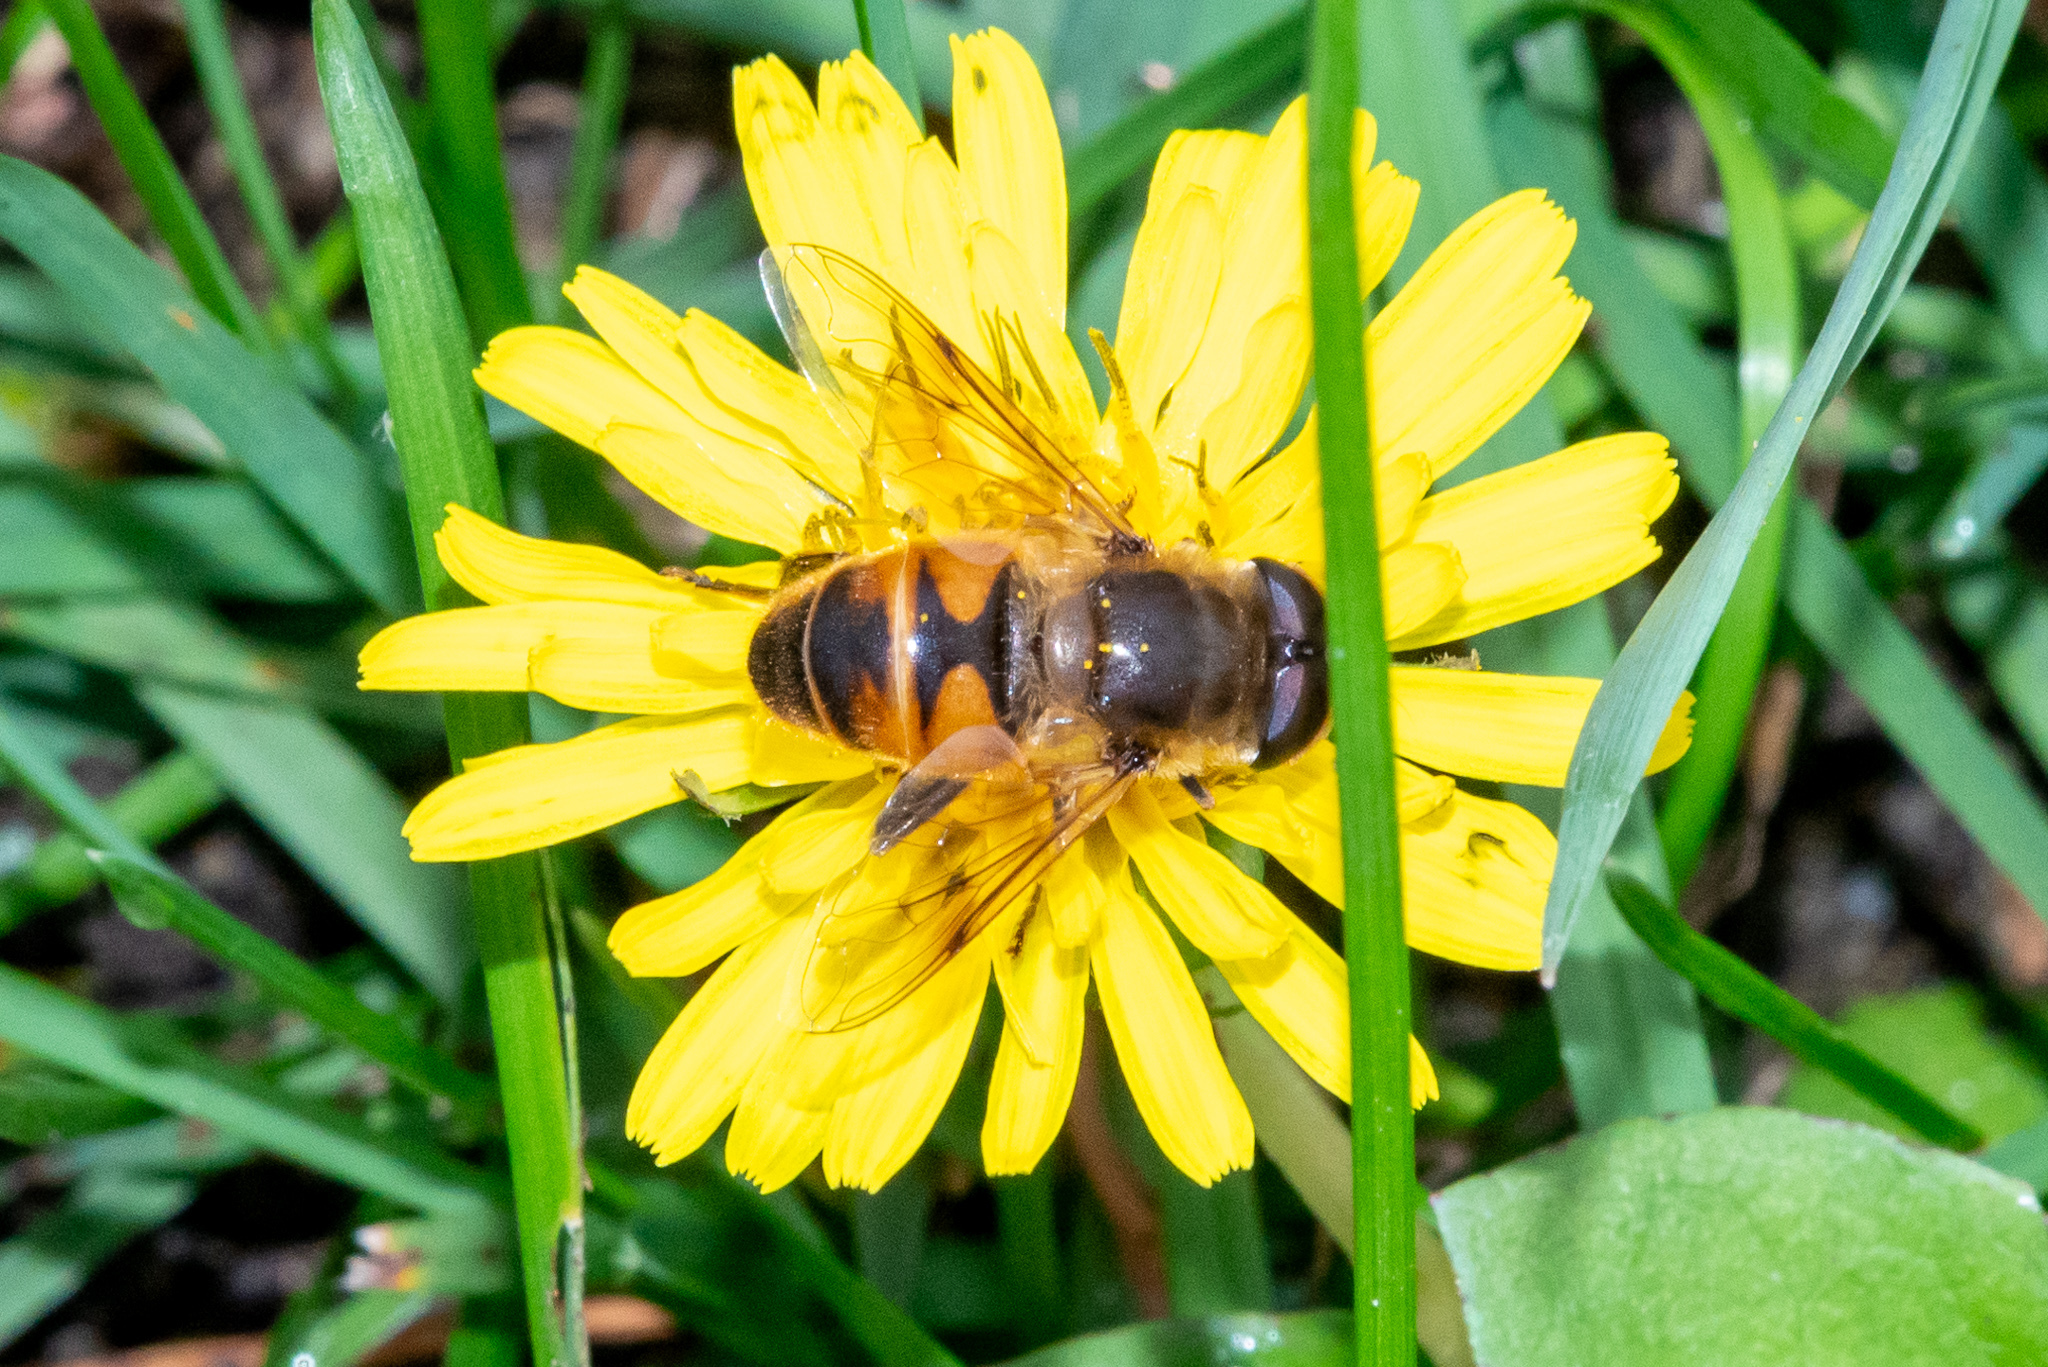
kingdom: Animalia
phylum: Arthropoda
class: Insecta
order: Diptera
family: Syrphidae
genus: Eristalis
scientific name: Eristalis tenax
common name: Drone fly
